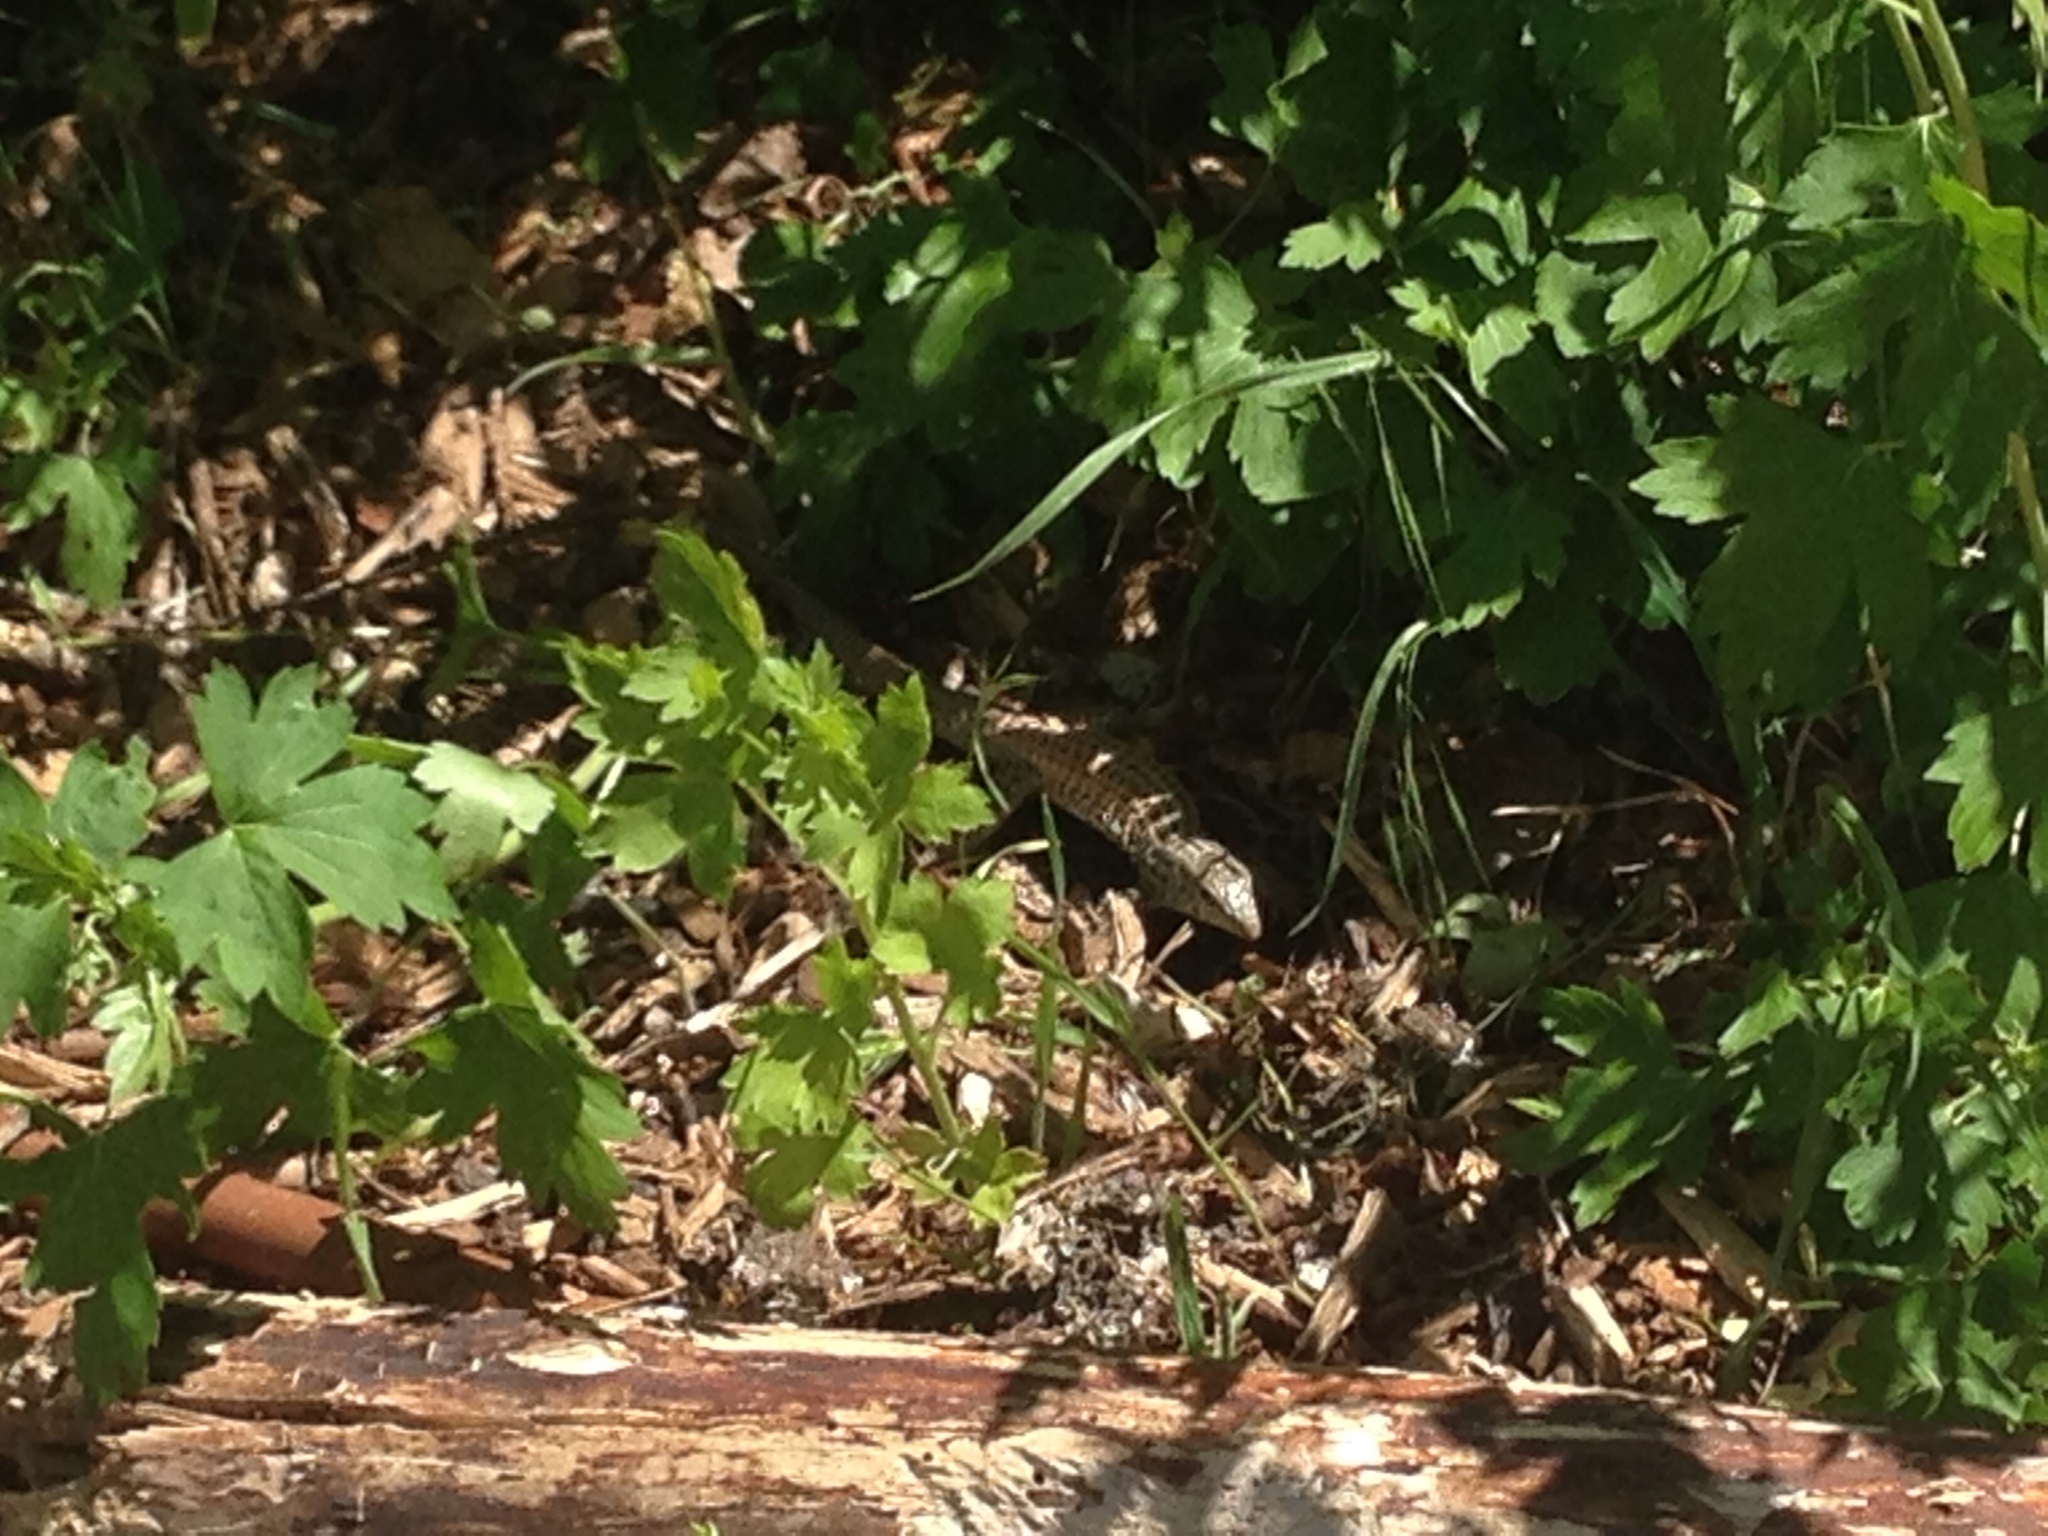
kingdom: Animalia
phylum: Chordata
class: Squamata
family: Teiidae
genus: Aspidoscelis
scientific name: Aspidoscelis tigris
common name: Tiger whiptail
